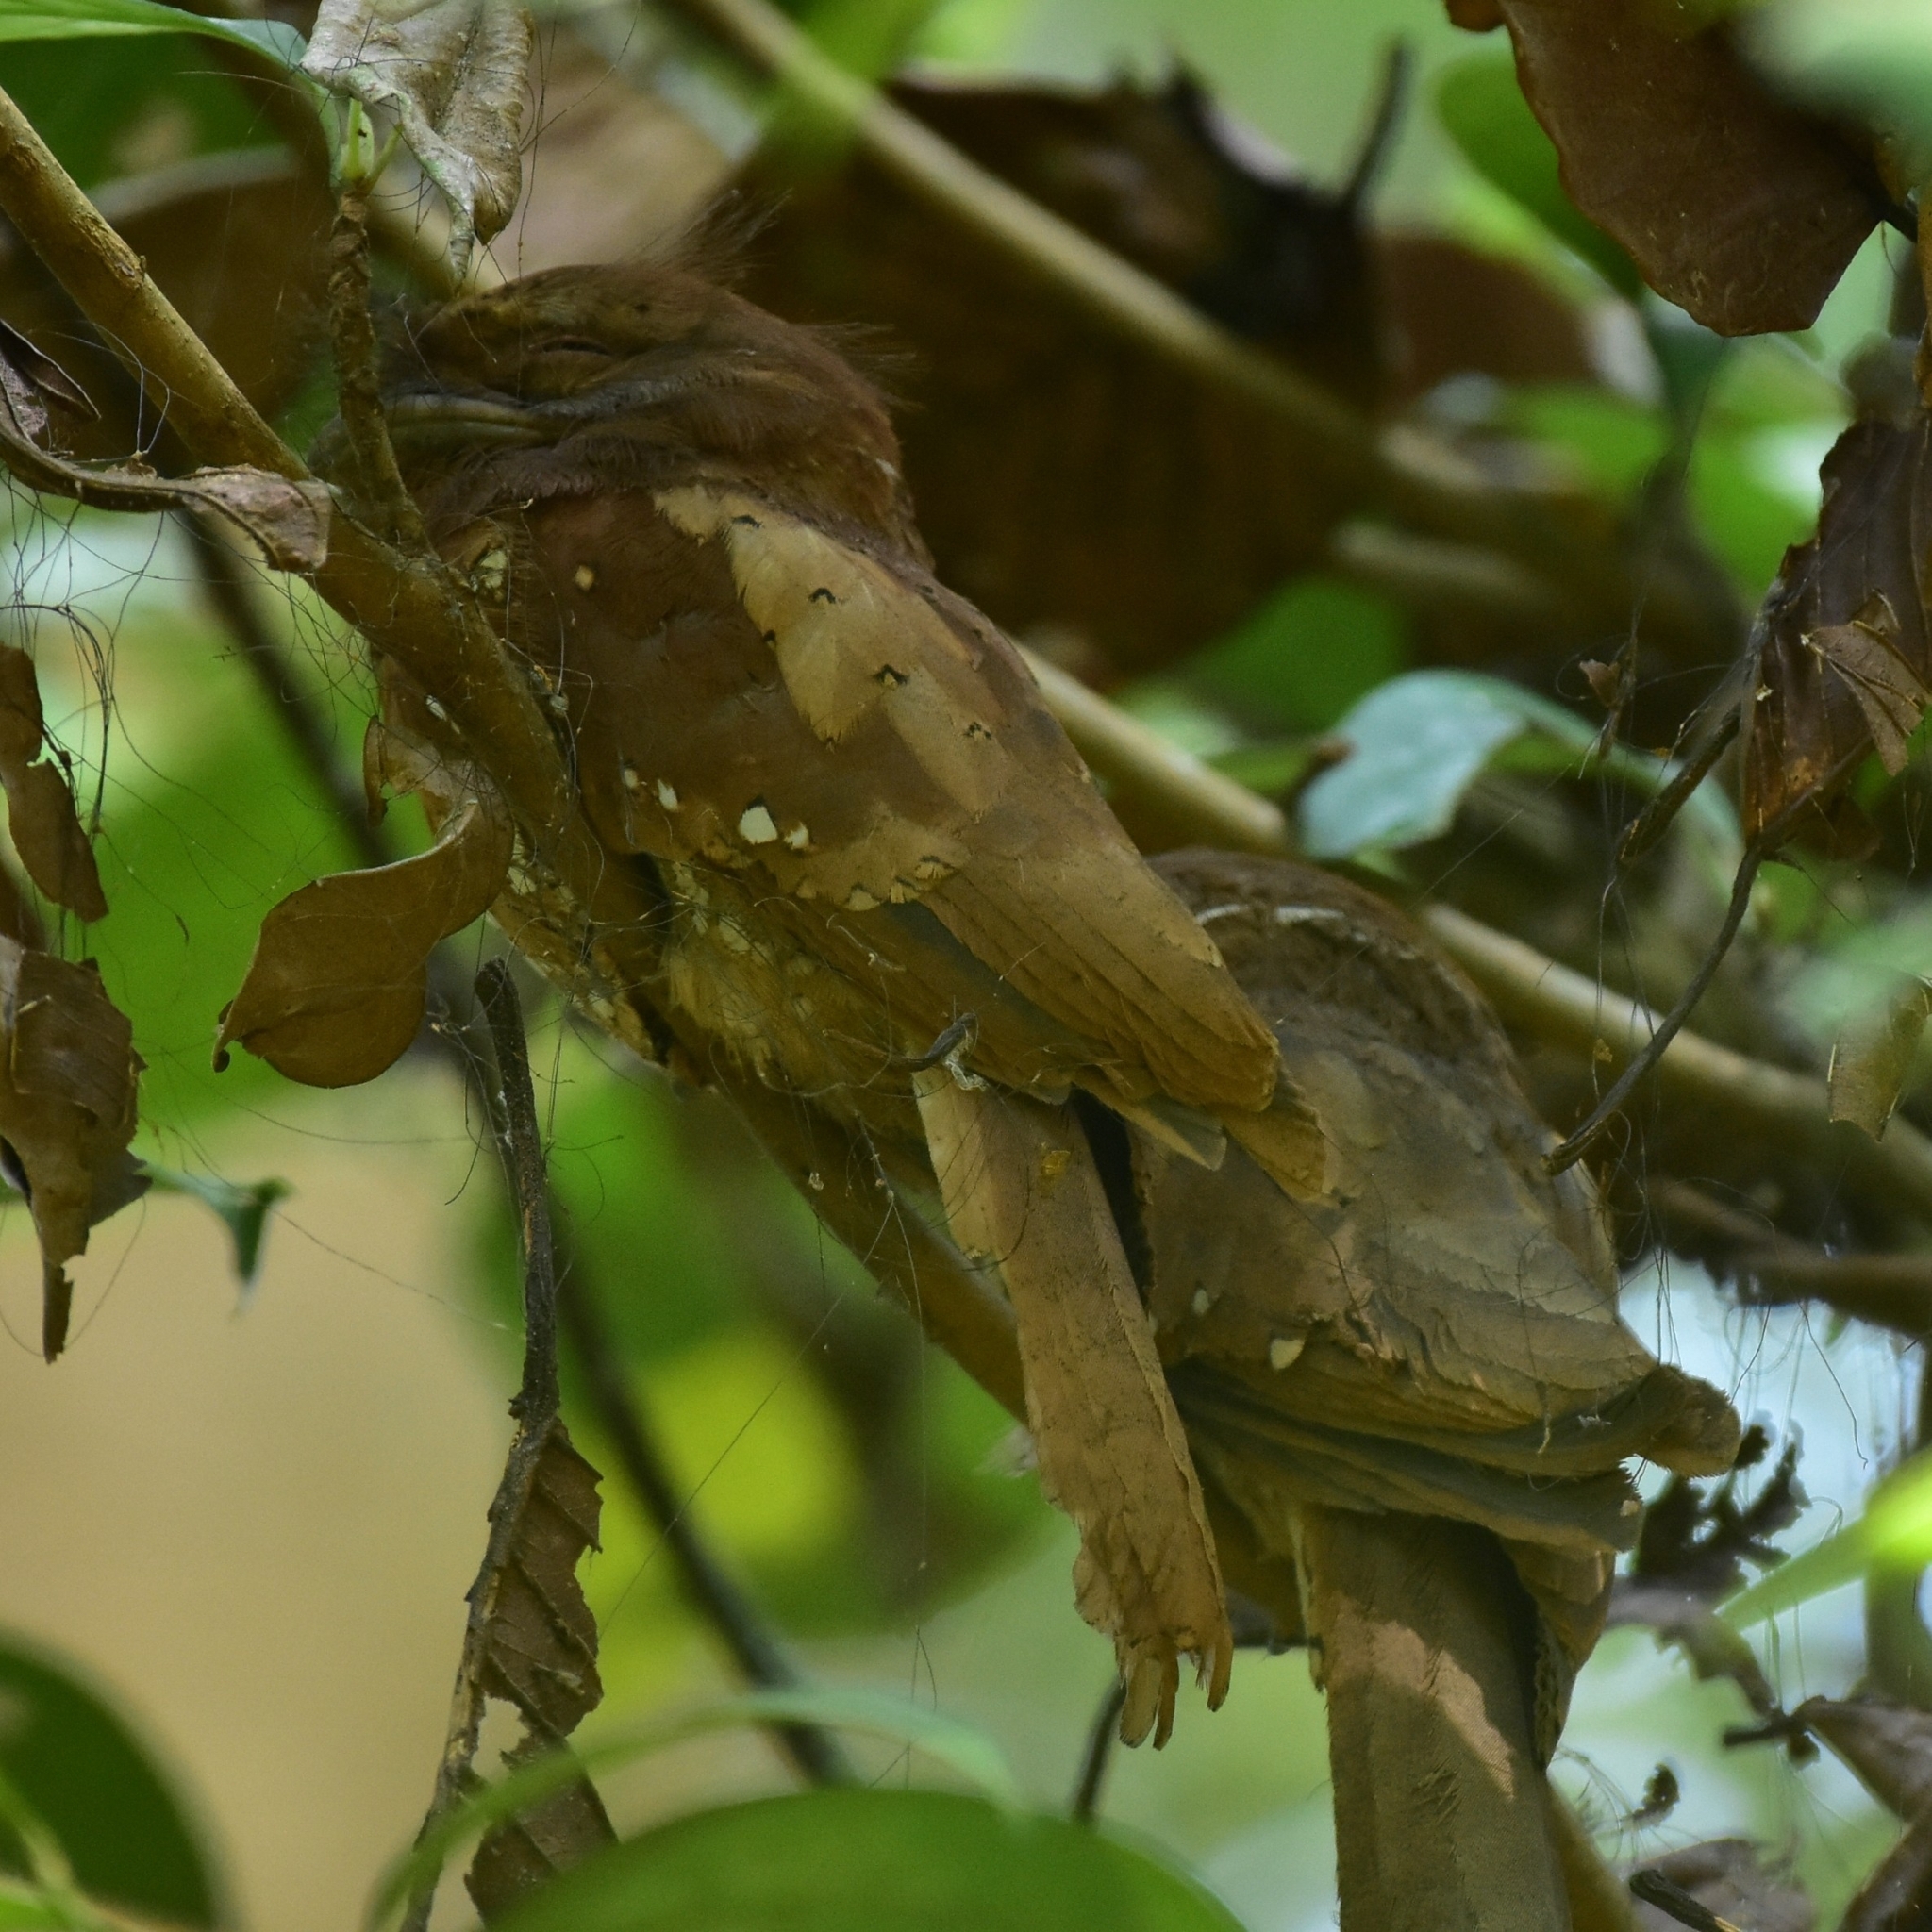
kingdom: Animalia
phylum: Chordata
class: Aves
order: Caprimulgiformes
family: Podargidae
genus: Batrachostomus
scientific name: Batrachostomus moniliger
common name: Sri lanka frogmouth
